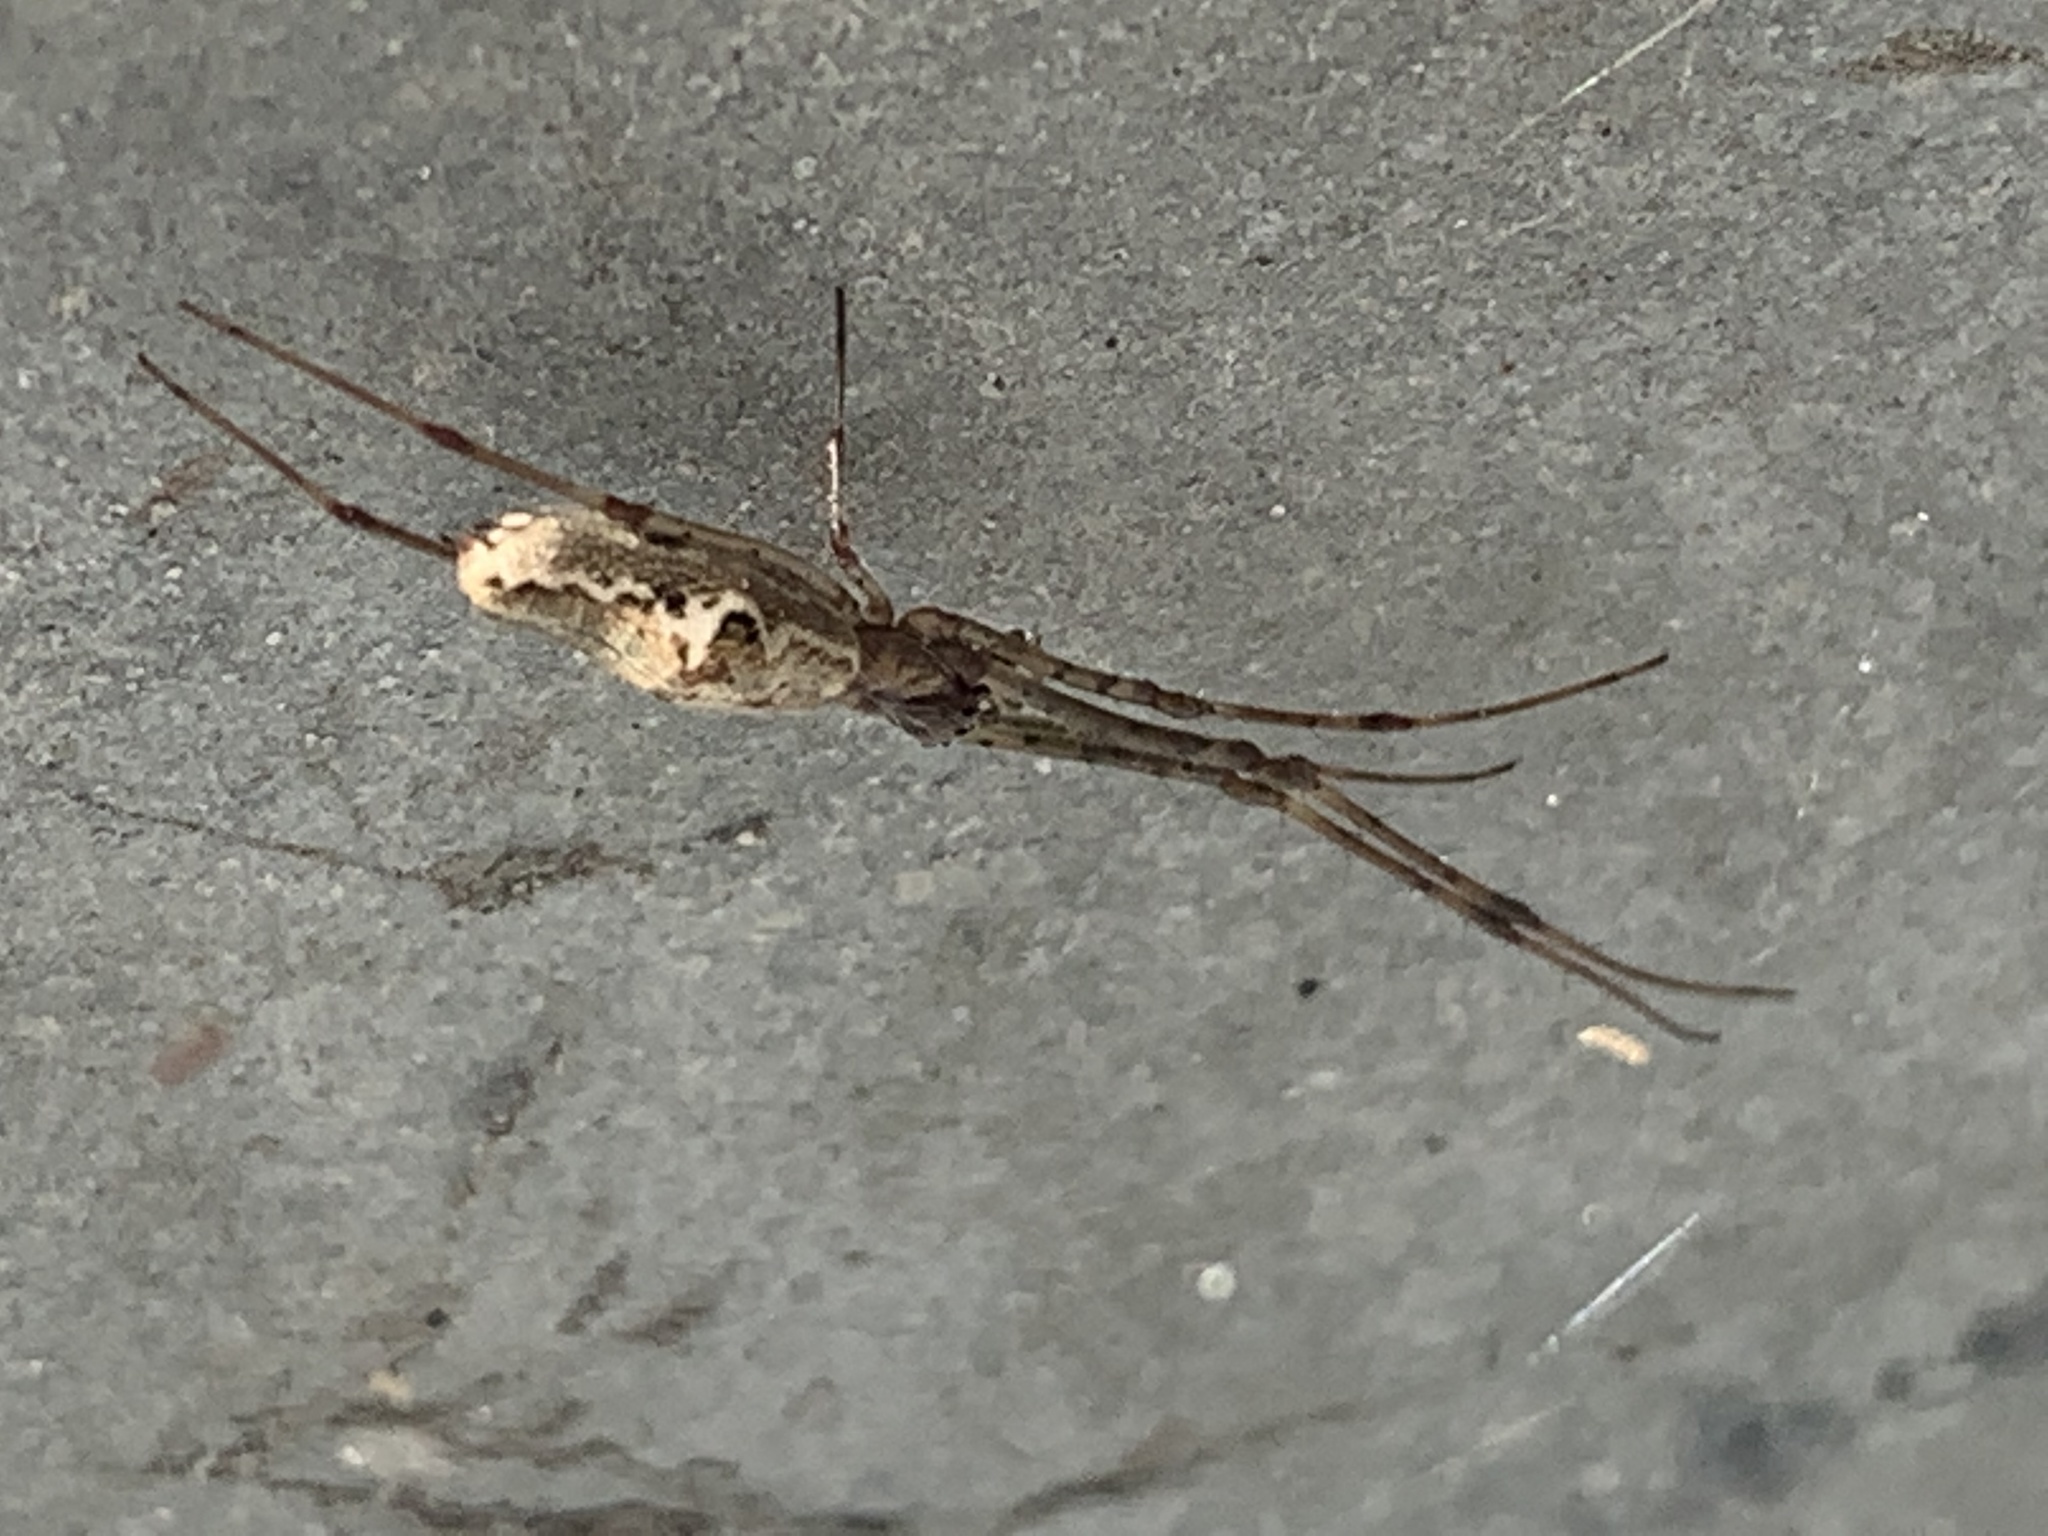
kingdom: Animalia
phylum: Arthropoda
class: Arachnida
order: Araneae
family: Tetragnathidae
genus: Tetragnatha
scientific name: Tetragnatha
